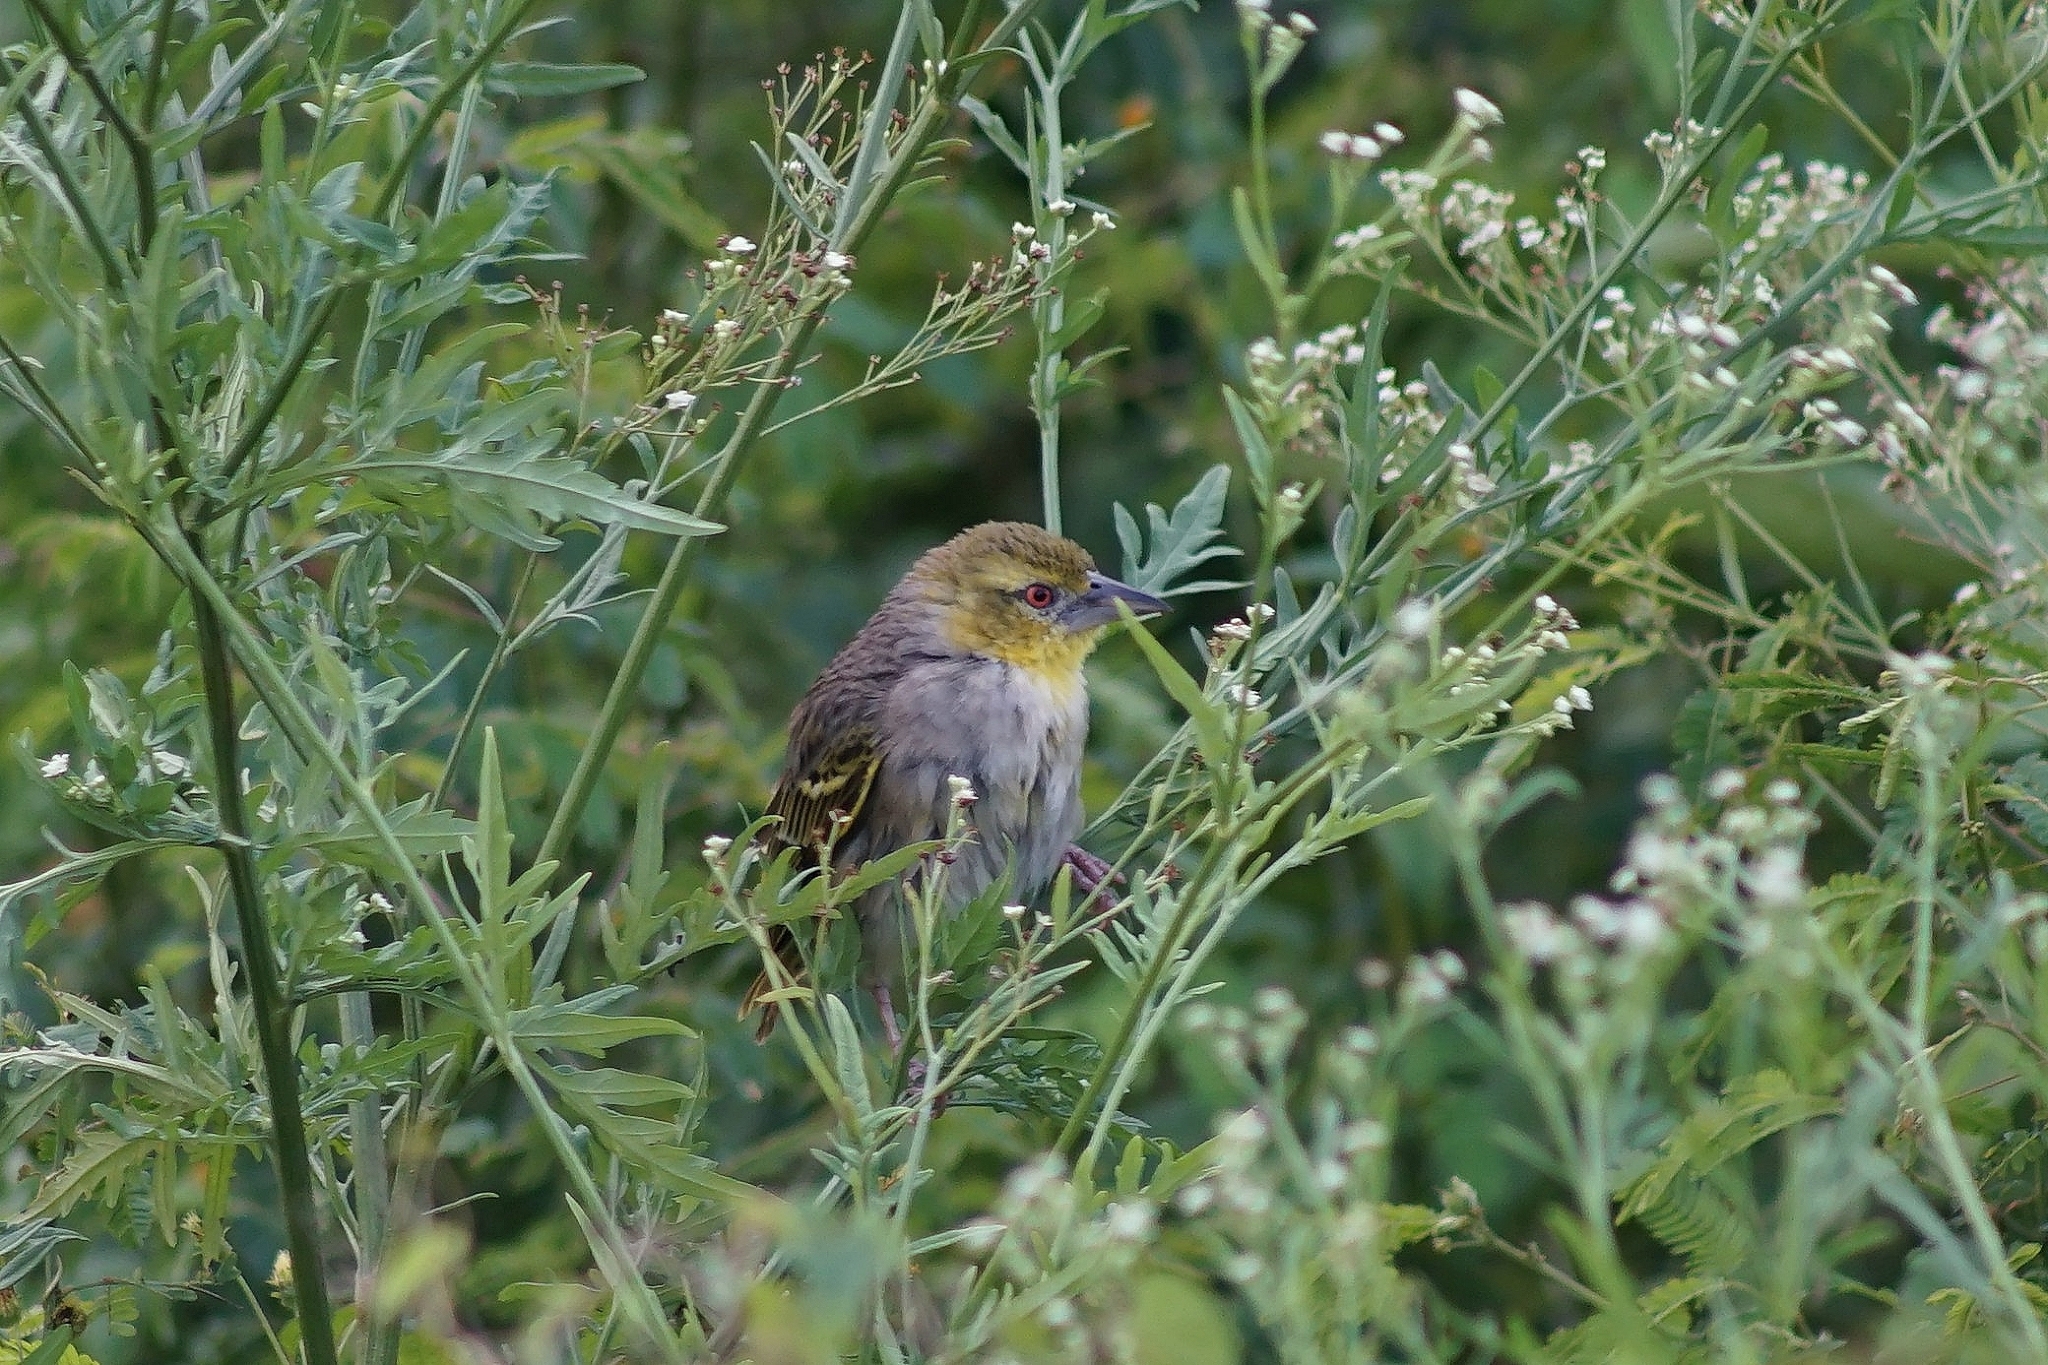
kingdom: Animalia
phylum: Chordata
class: Aves
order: Passeriformes
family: Ploceidae
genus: Ploceus
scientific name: Ploceus cucullatus
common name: Village weaver
